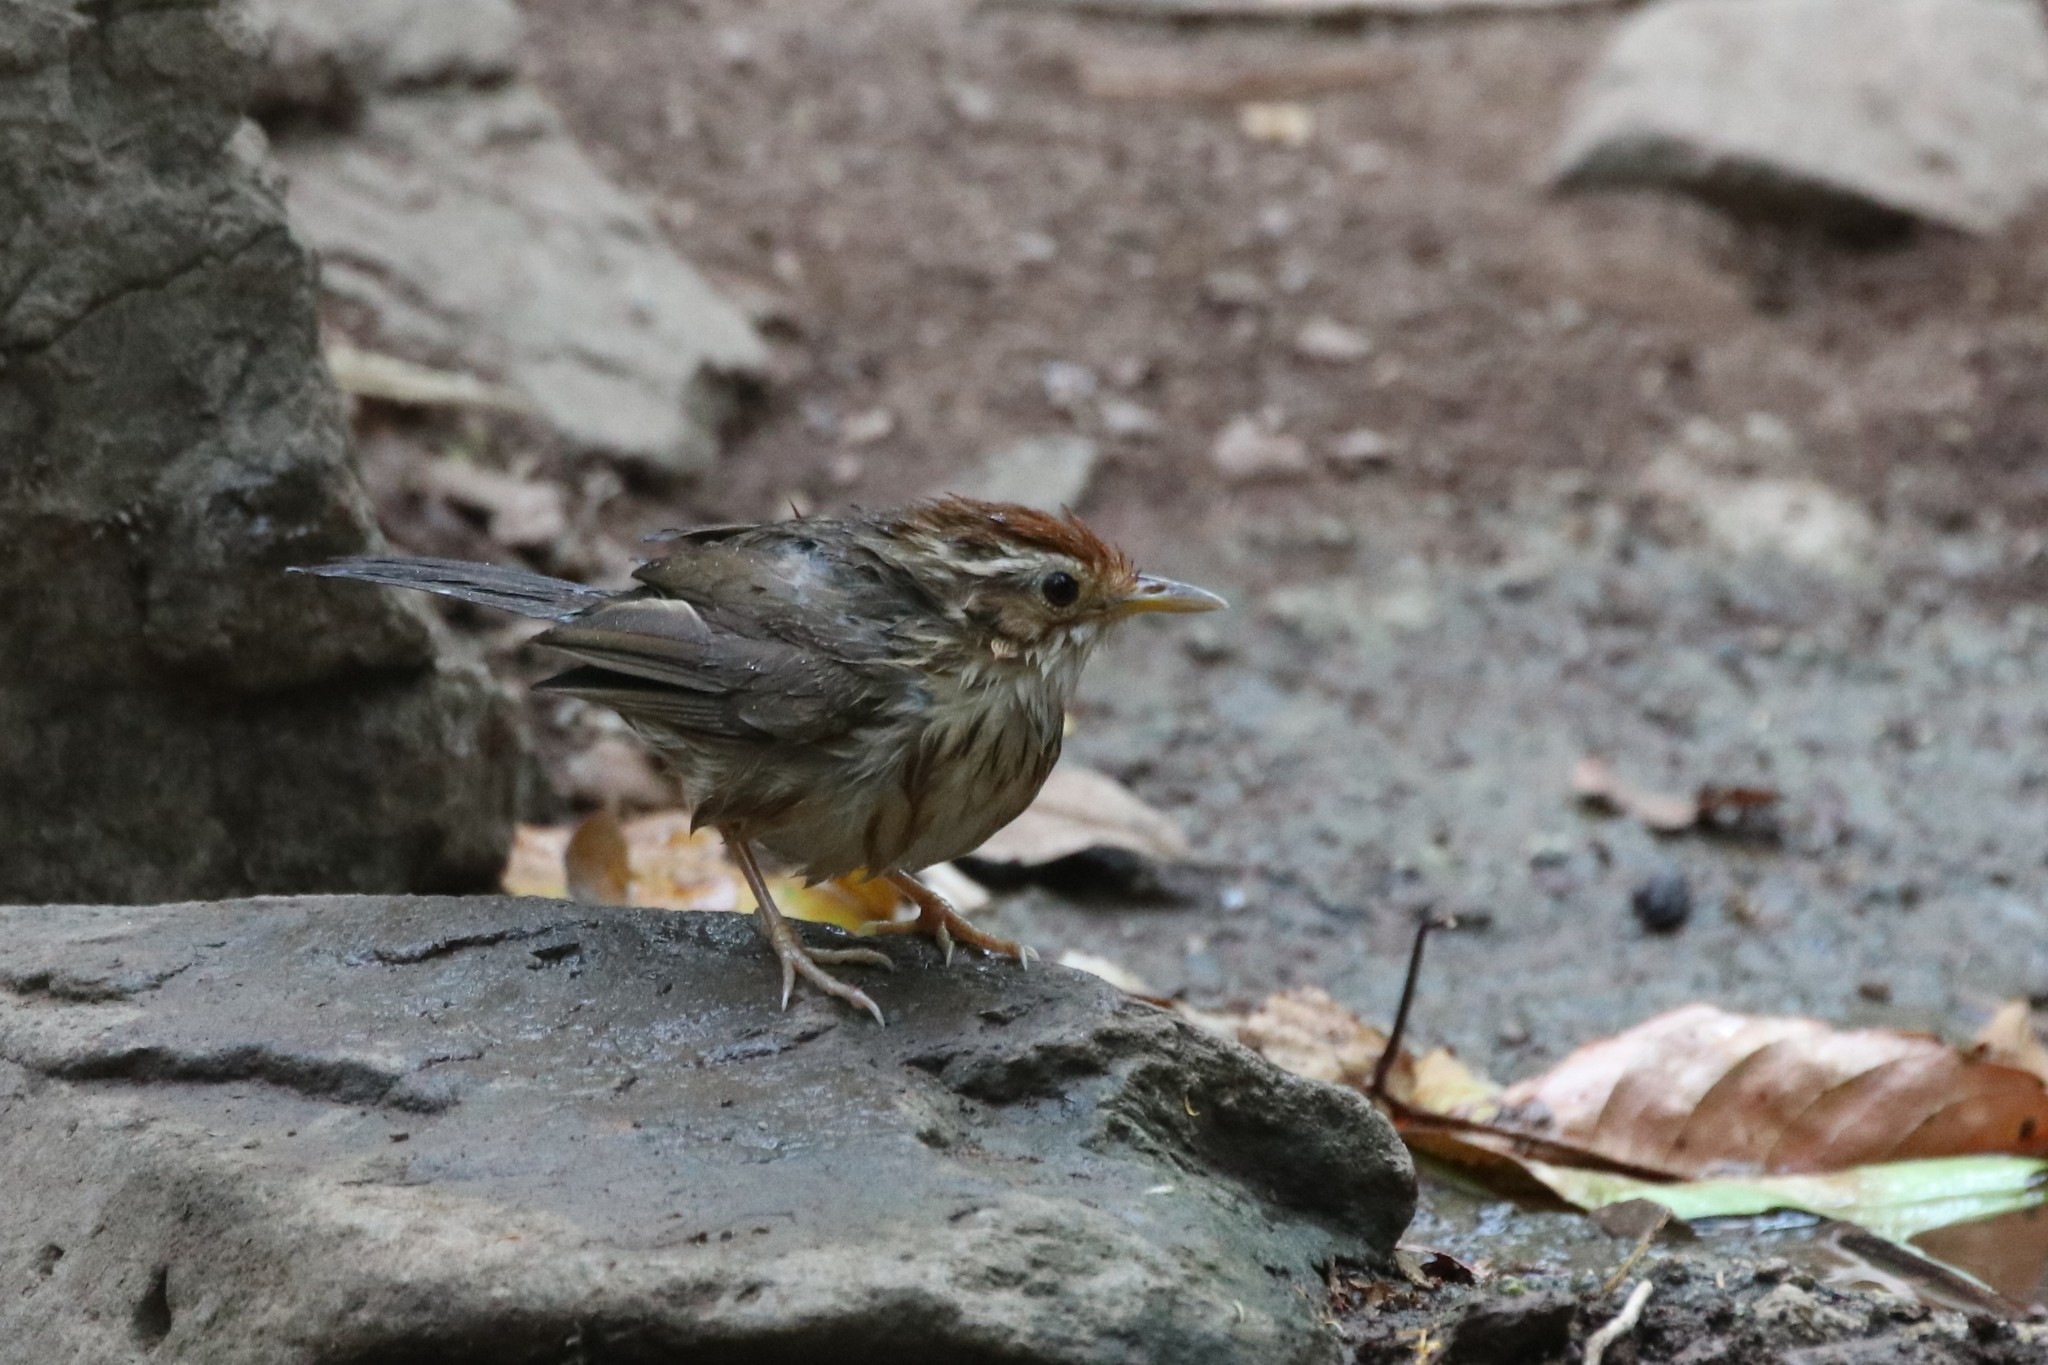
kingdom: Animalia
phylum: Chordata
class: Aves
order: Passeriformes
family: Pellorneidae
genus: Pellorneum
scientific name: Pellorneum ruficeps
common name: Puff-throated babbler
